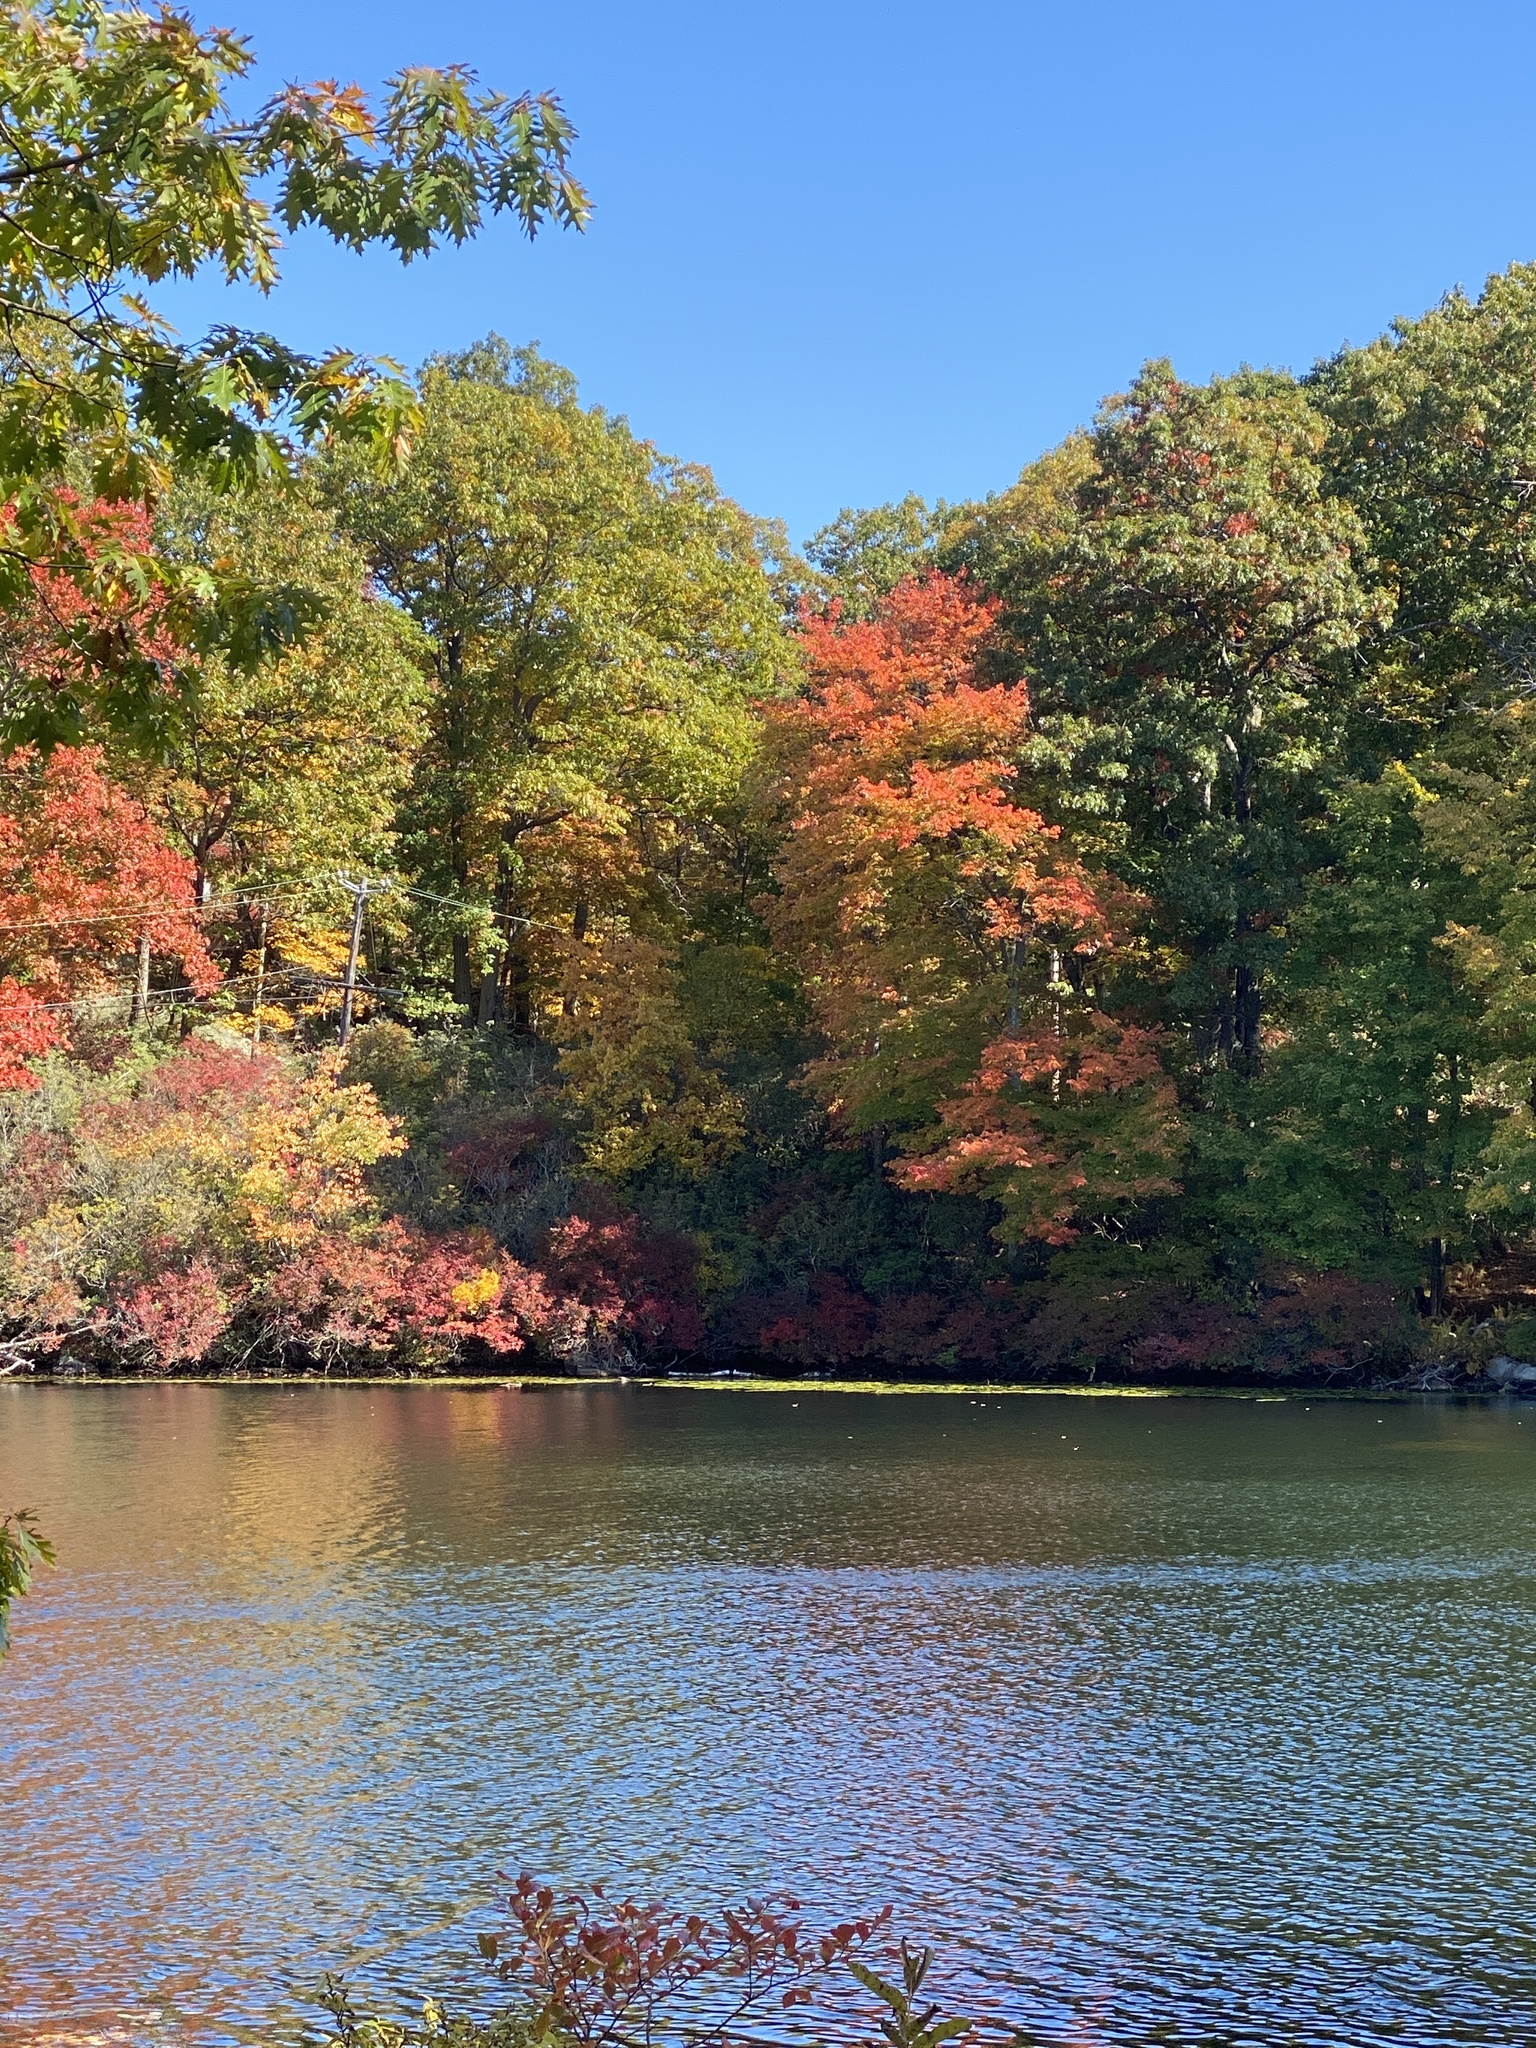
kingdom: Plantae
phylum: Tracheophyta
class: Magnoliopsida
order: Fagales
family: Fagaceae
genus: Quercus
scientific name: Quercus alba
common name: White oak
